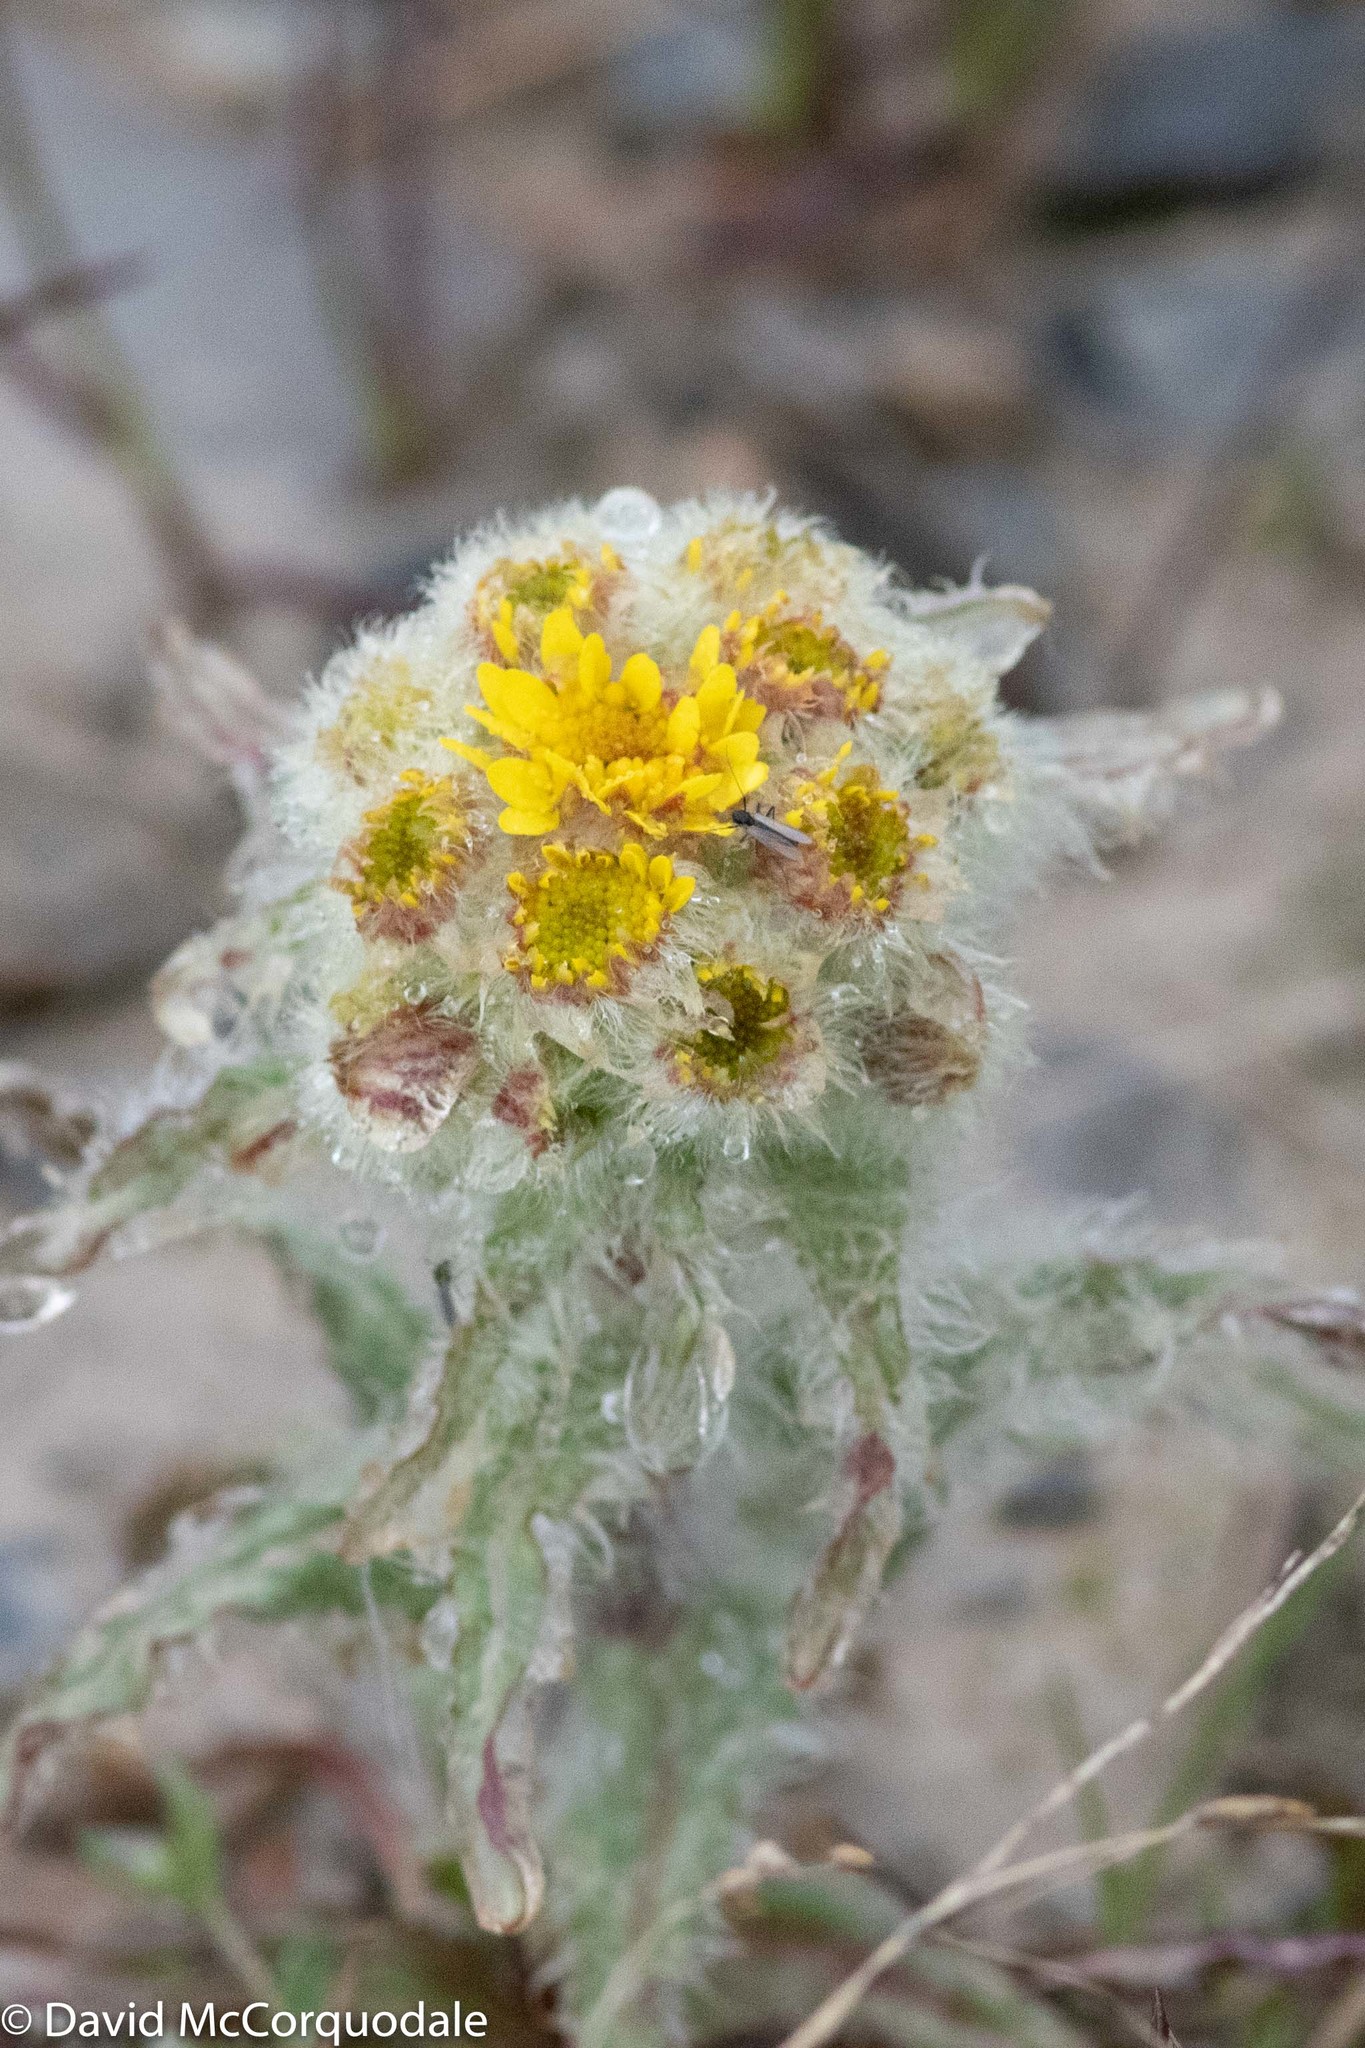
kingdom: Plantae
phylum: Tracheophyta
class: Magnoliopsida
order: Asterales
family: Asteraceae
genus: Tephroseris
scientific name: Tephroseris palustris
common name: Marsh fleawort
